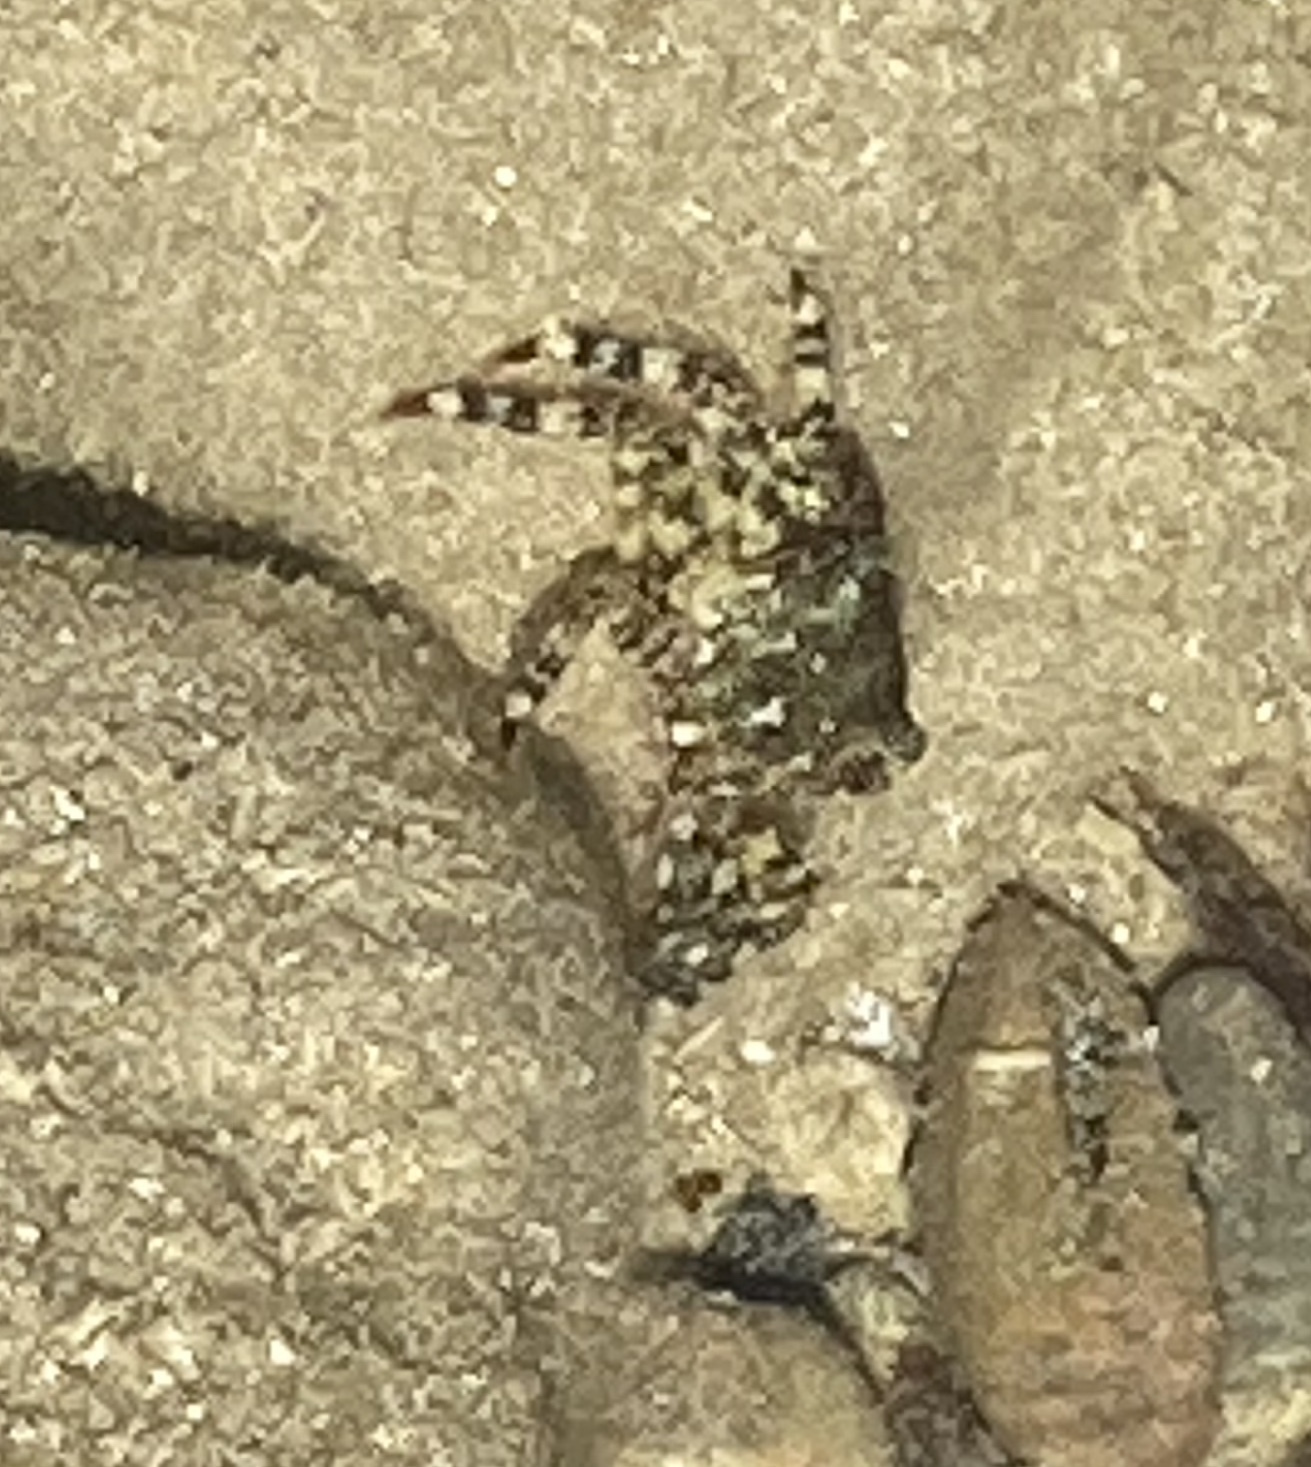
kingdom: Animalia
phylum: Arthropoda
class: Malacostraca
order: Decapoda
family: Grapsidae
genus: Pachygrapsus
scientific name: Pachygrapsus marmoratus
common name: Marbled rock crab
